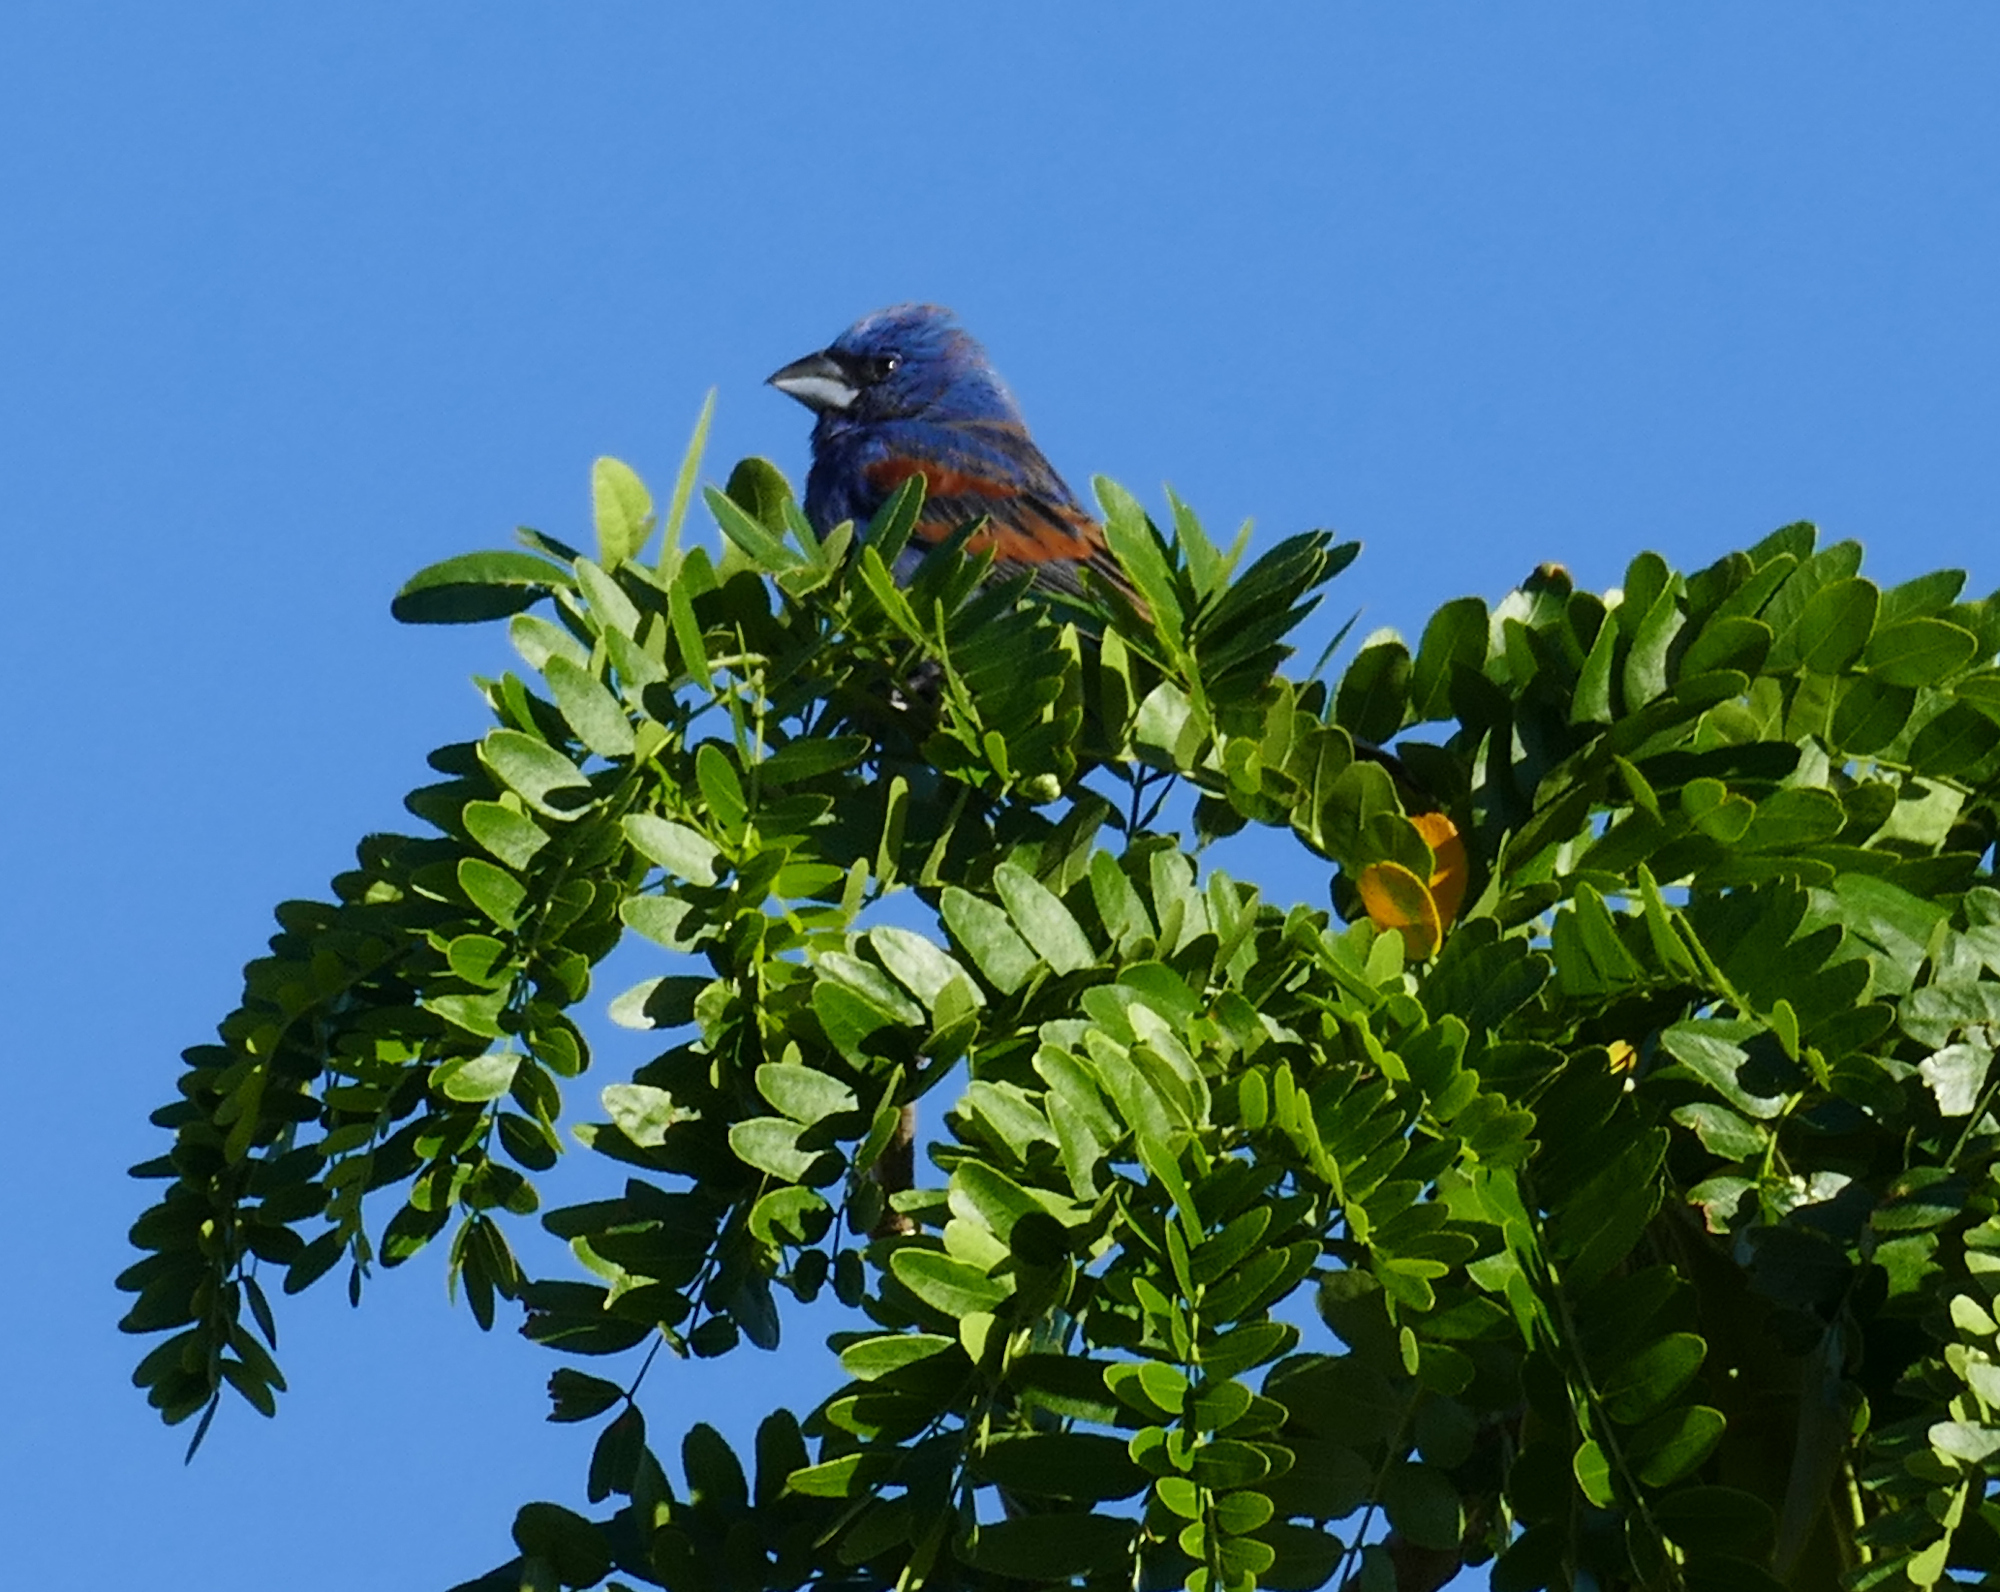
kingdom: Animalia
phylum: Chordata
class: Aves
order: Passeriformes
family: Cardinalidae
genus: Passerina
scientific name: Passerina caerulea
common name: Blue grosbeak
